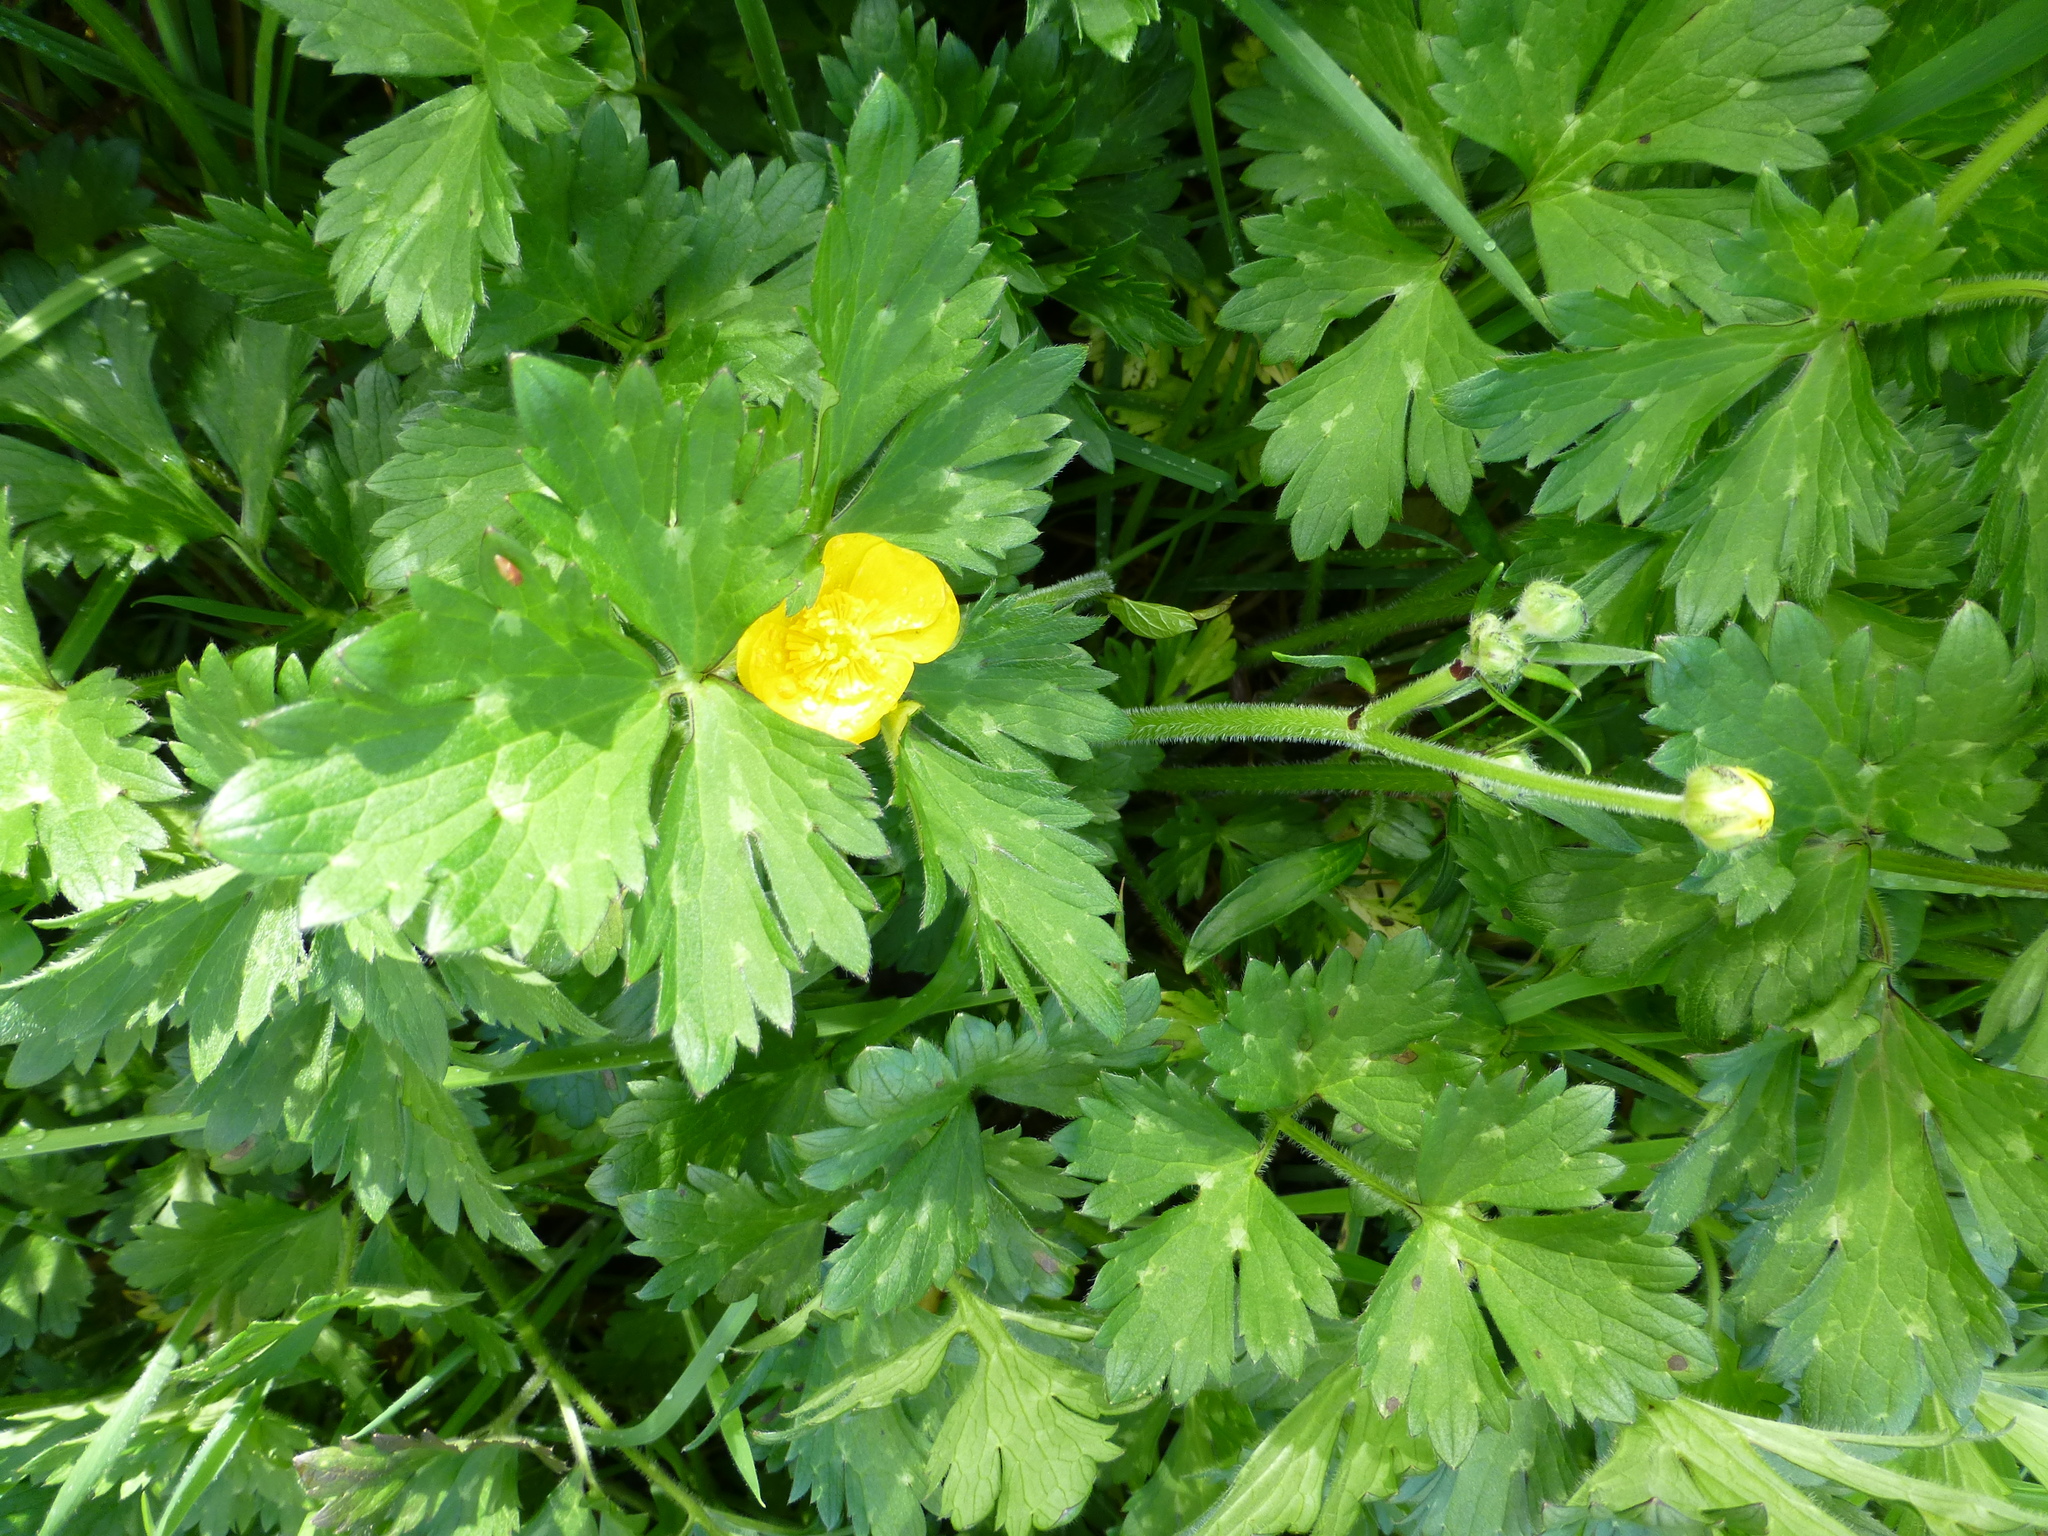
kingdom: Plantae
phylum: Tracheophyta
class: Magnoliopsida
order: Ranunculales
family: Ranunculaceae
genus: Ranunculus
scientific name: Ranunculus repens
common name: Creeping buttercup
